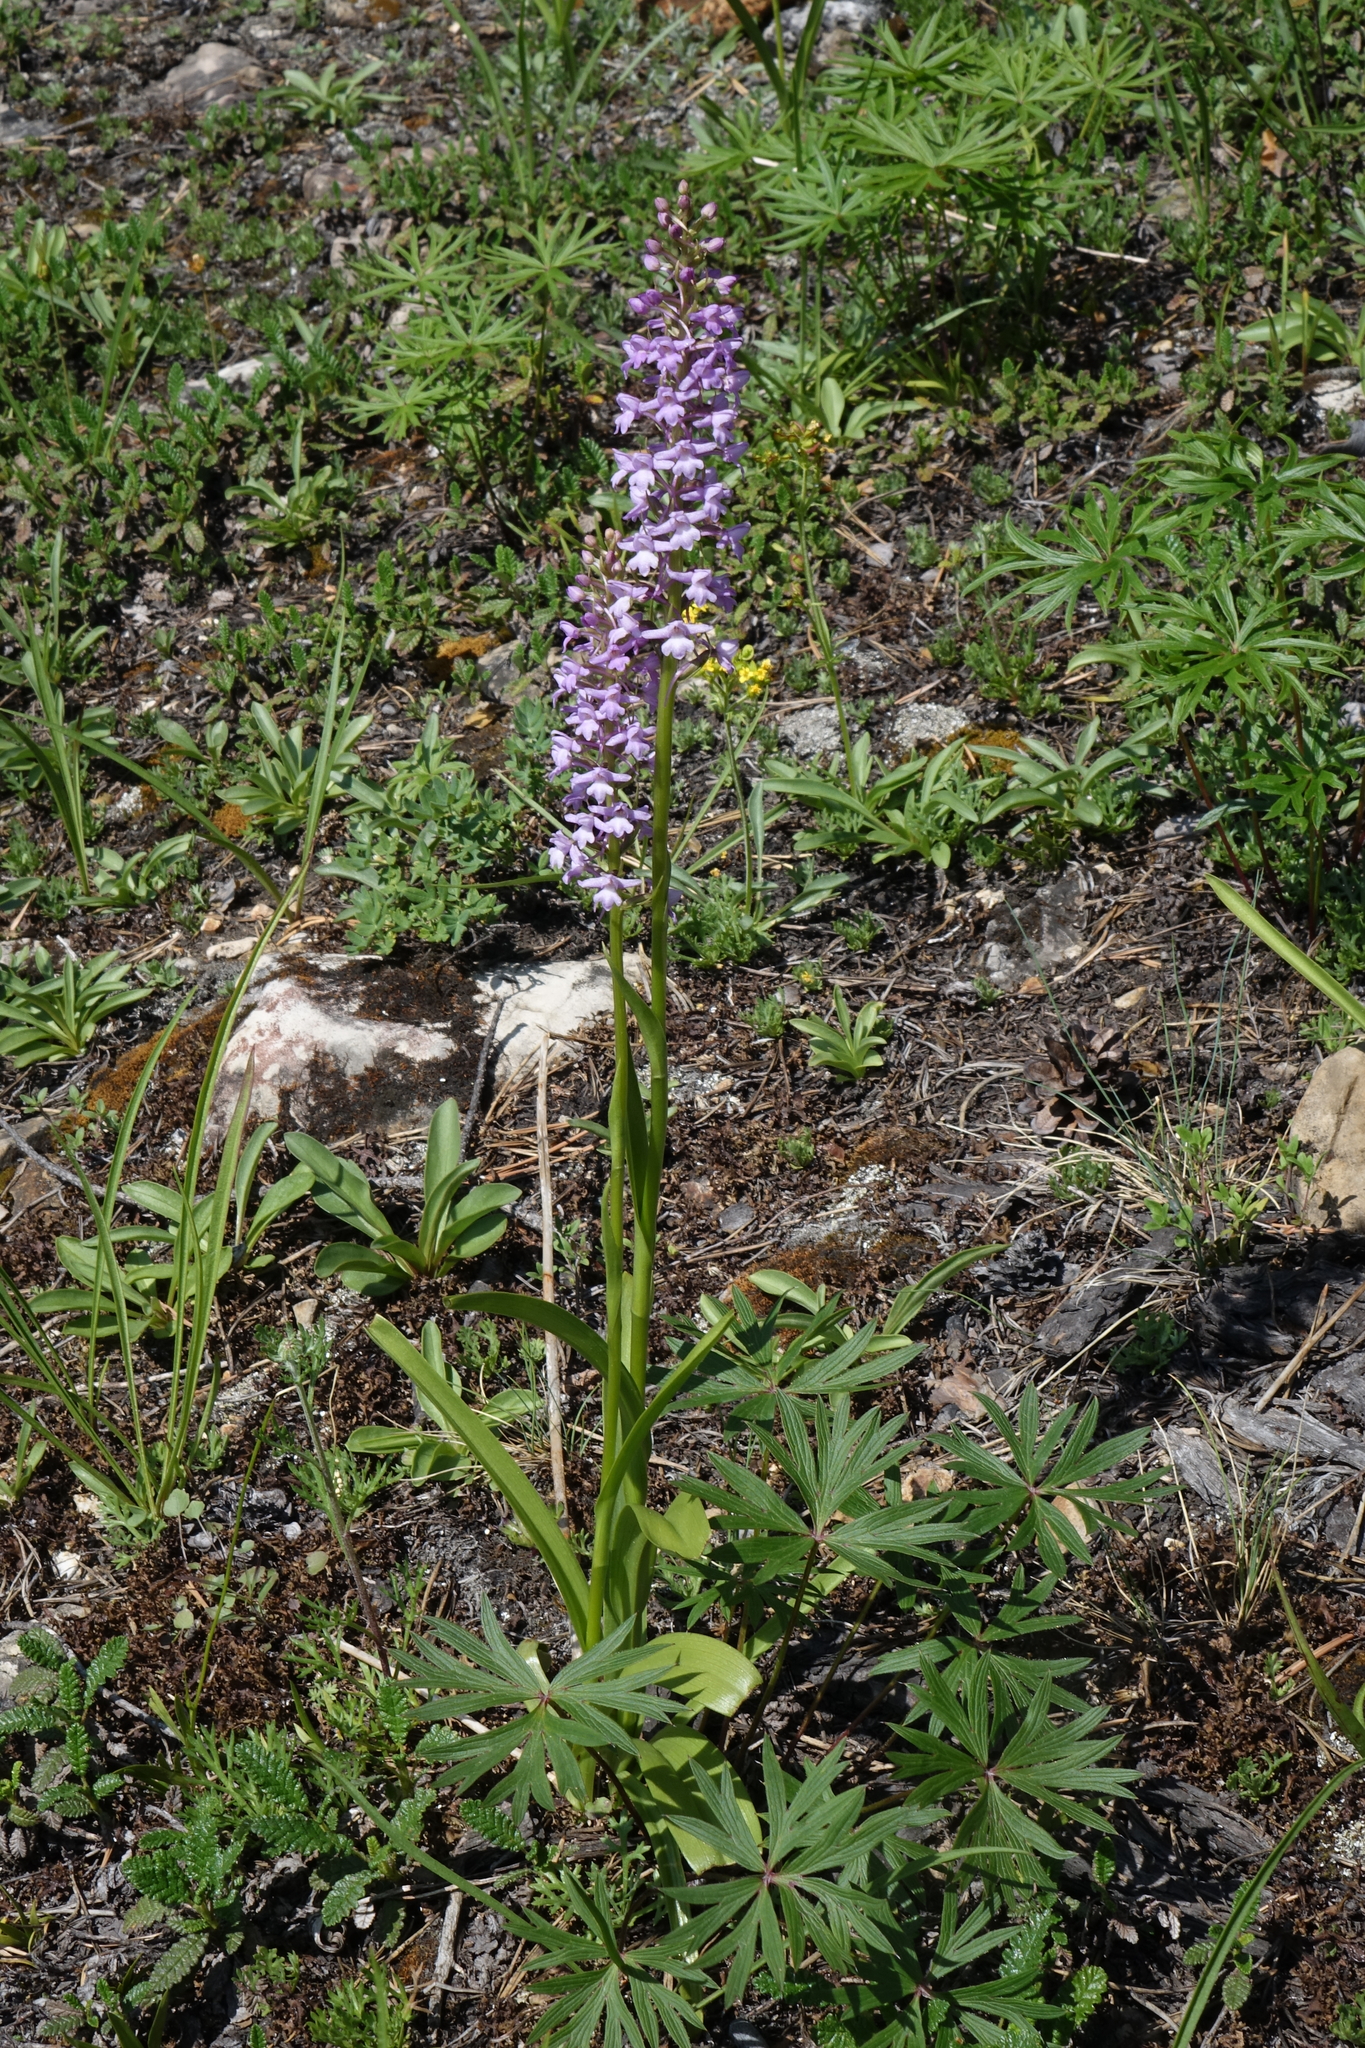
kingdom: Plantae
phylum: Tracheophyta
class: Liliopsida
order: Asparagales
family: Orchidaceae
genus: Gymnadenia
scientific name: Gymnadenia conopsea
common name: Fragrant orchid
